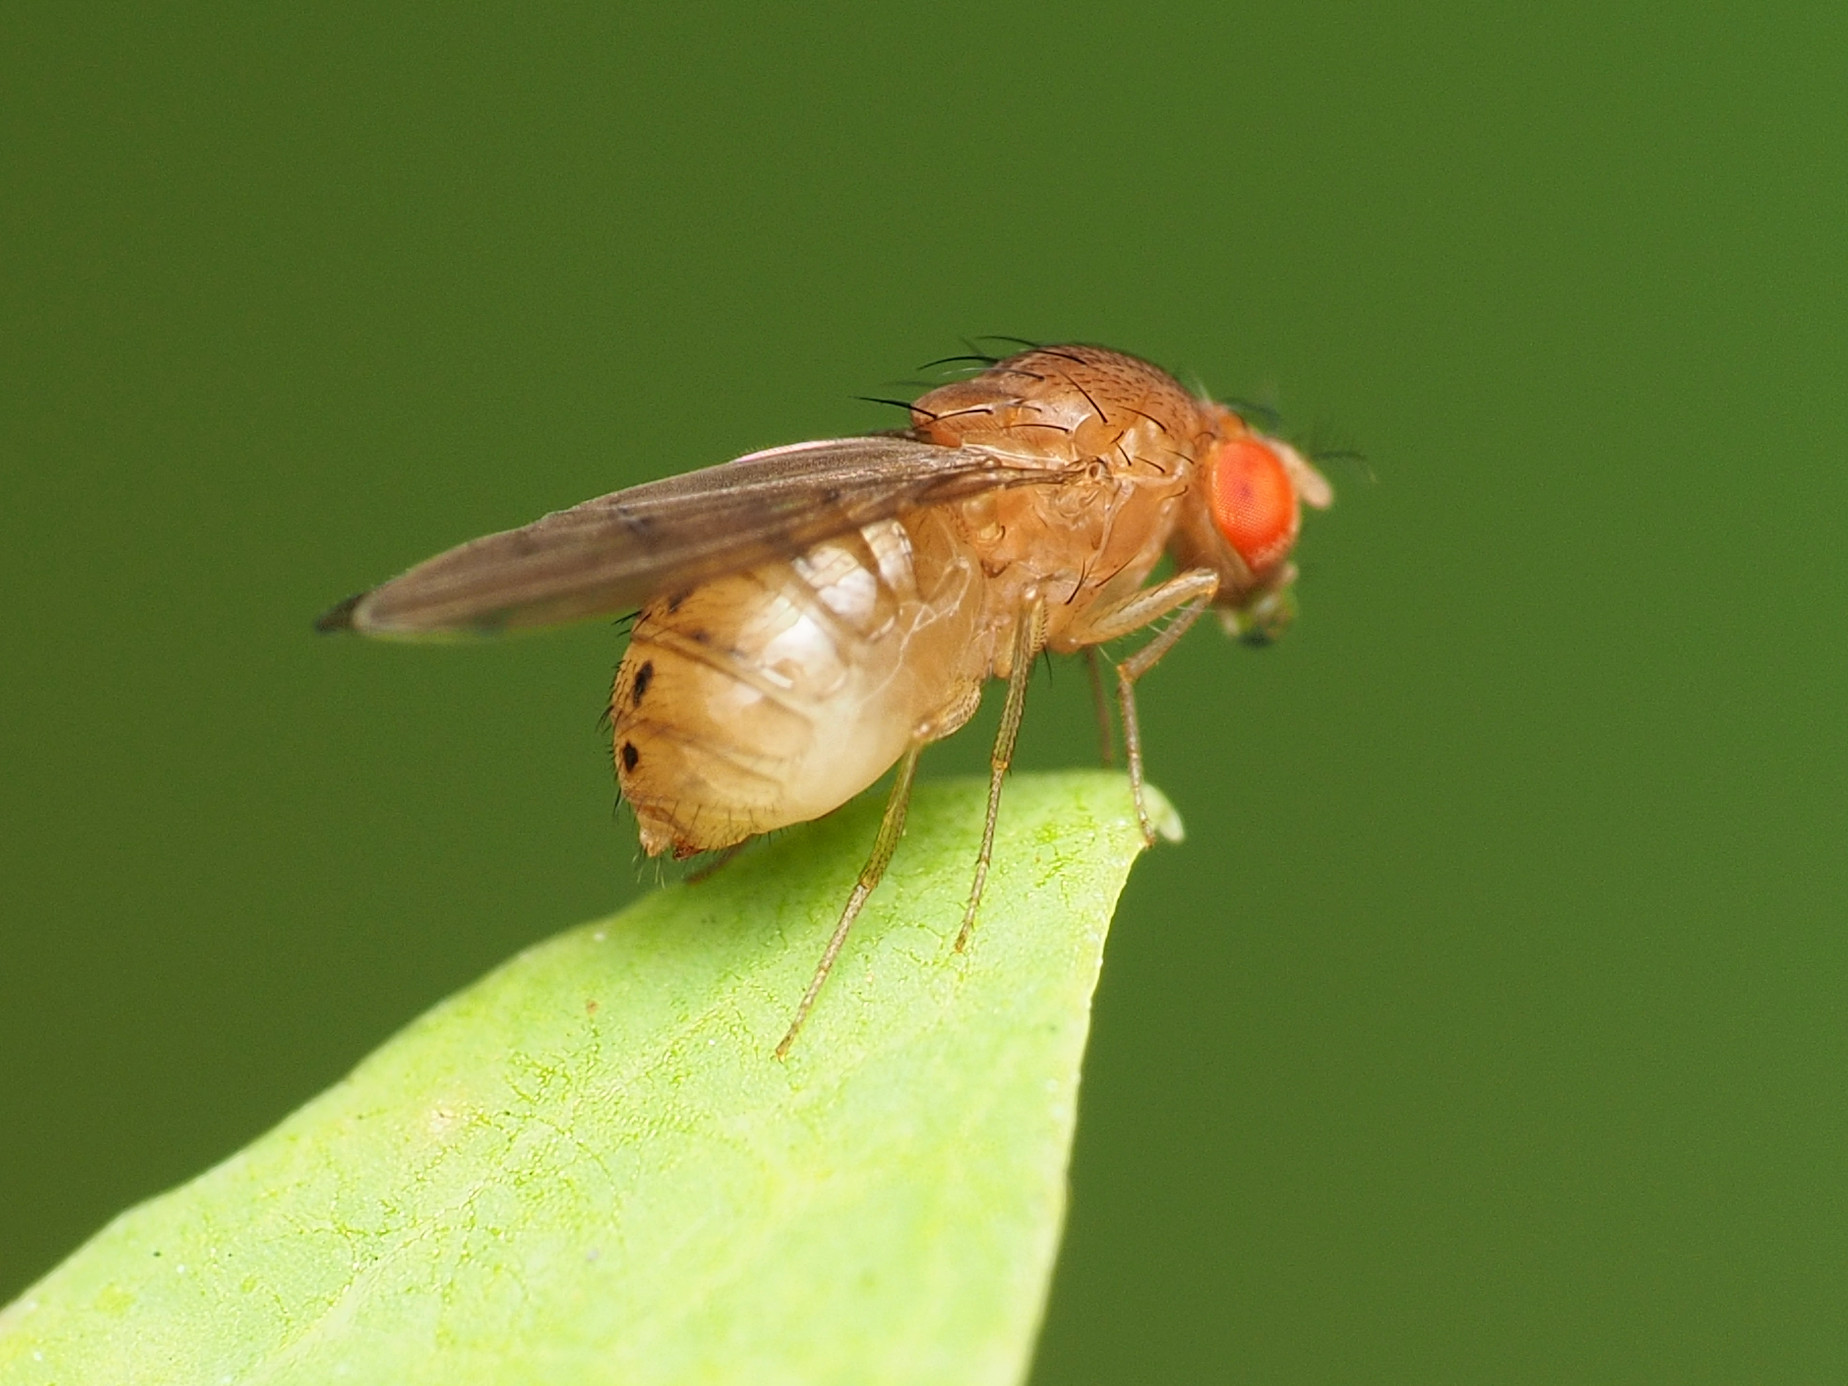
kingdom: Animalia
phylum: Arthropoda
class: Insecta
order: Diptera
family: Drosophilidae
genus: Drosophila
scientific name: Drosophila tripunctata
